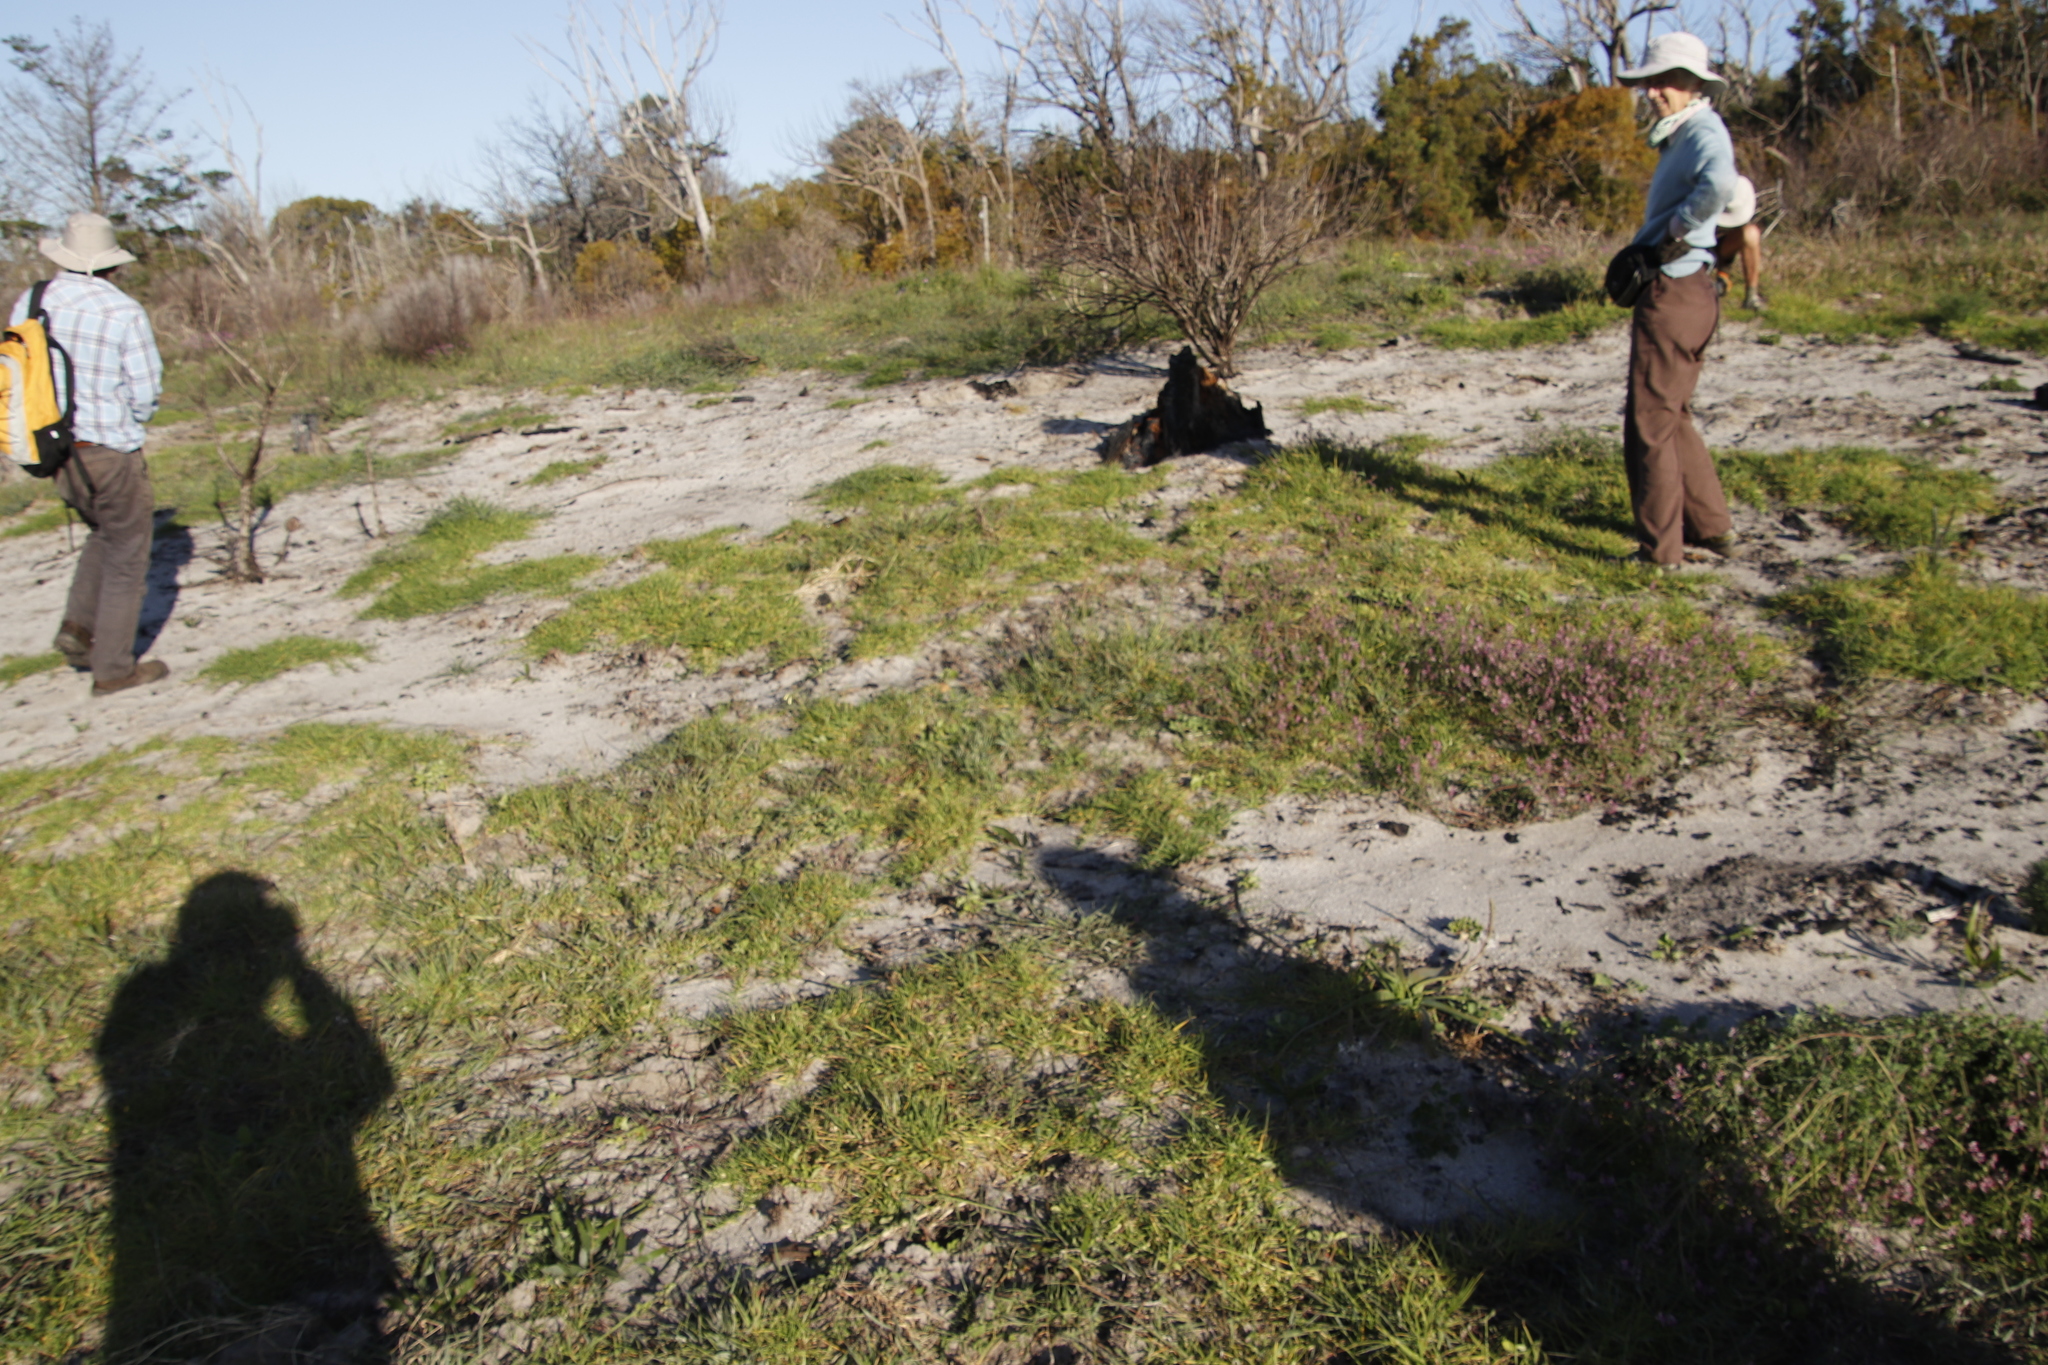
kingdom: Plantae
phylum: Tracheophyta
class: Liliopsida
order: Poales
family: Poaceae
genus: Cenchrus
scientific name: Cenchrus clandestinus
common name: Kikuyugrass
